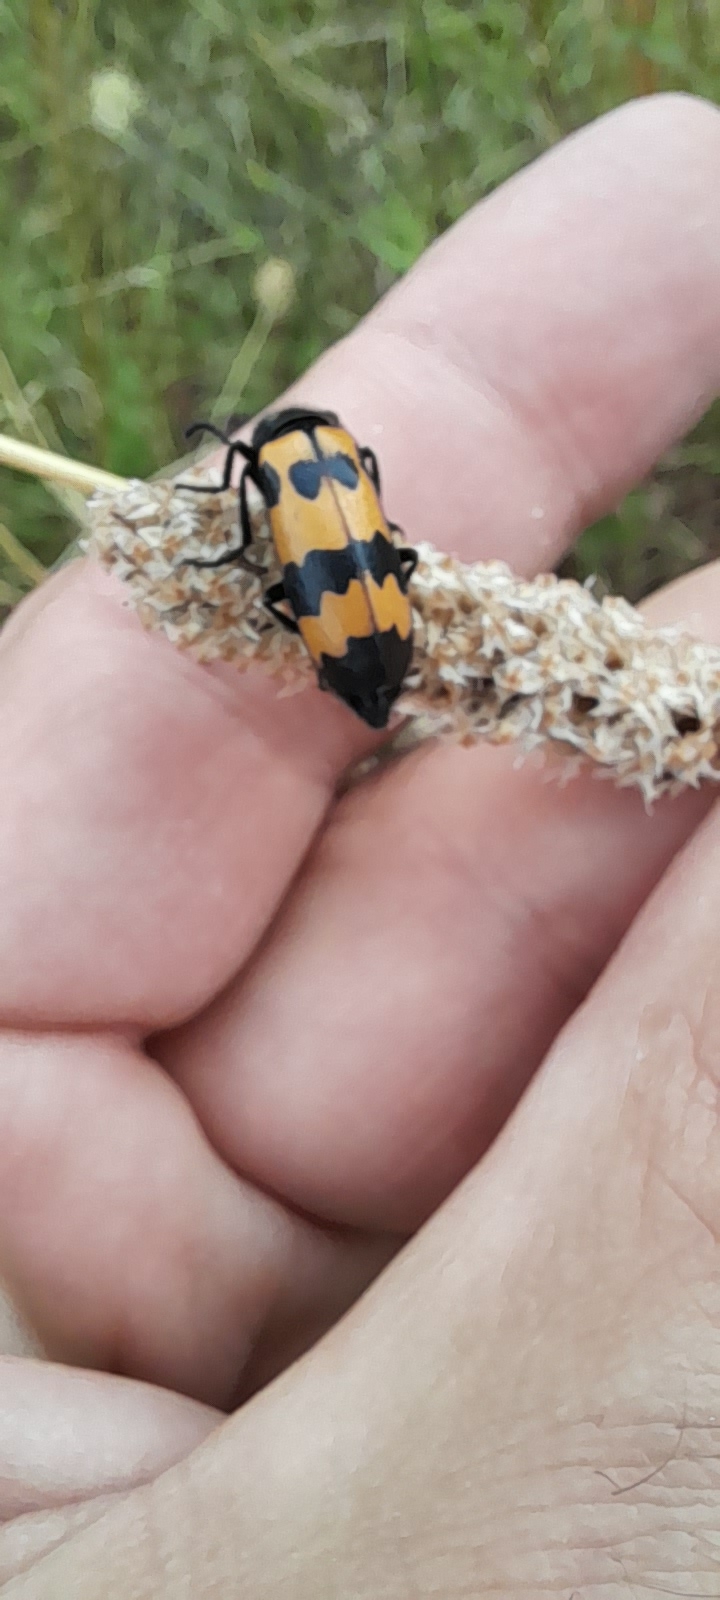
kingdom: Animalia
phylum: Arthropoda
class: Insecta
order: Coleoptera
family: Meloidae
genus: Mylabris
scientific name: Mylabris variabilis
